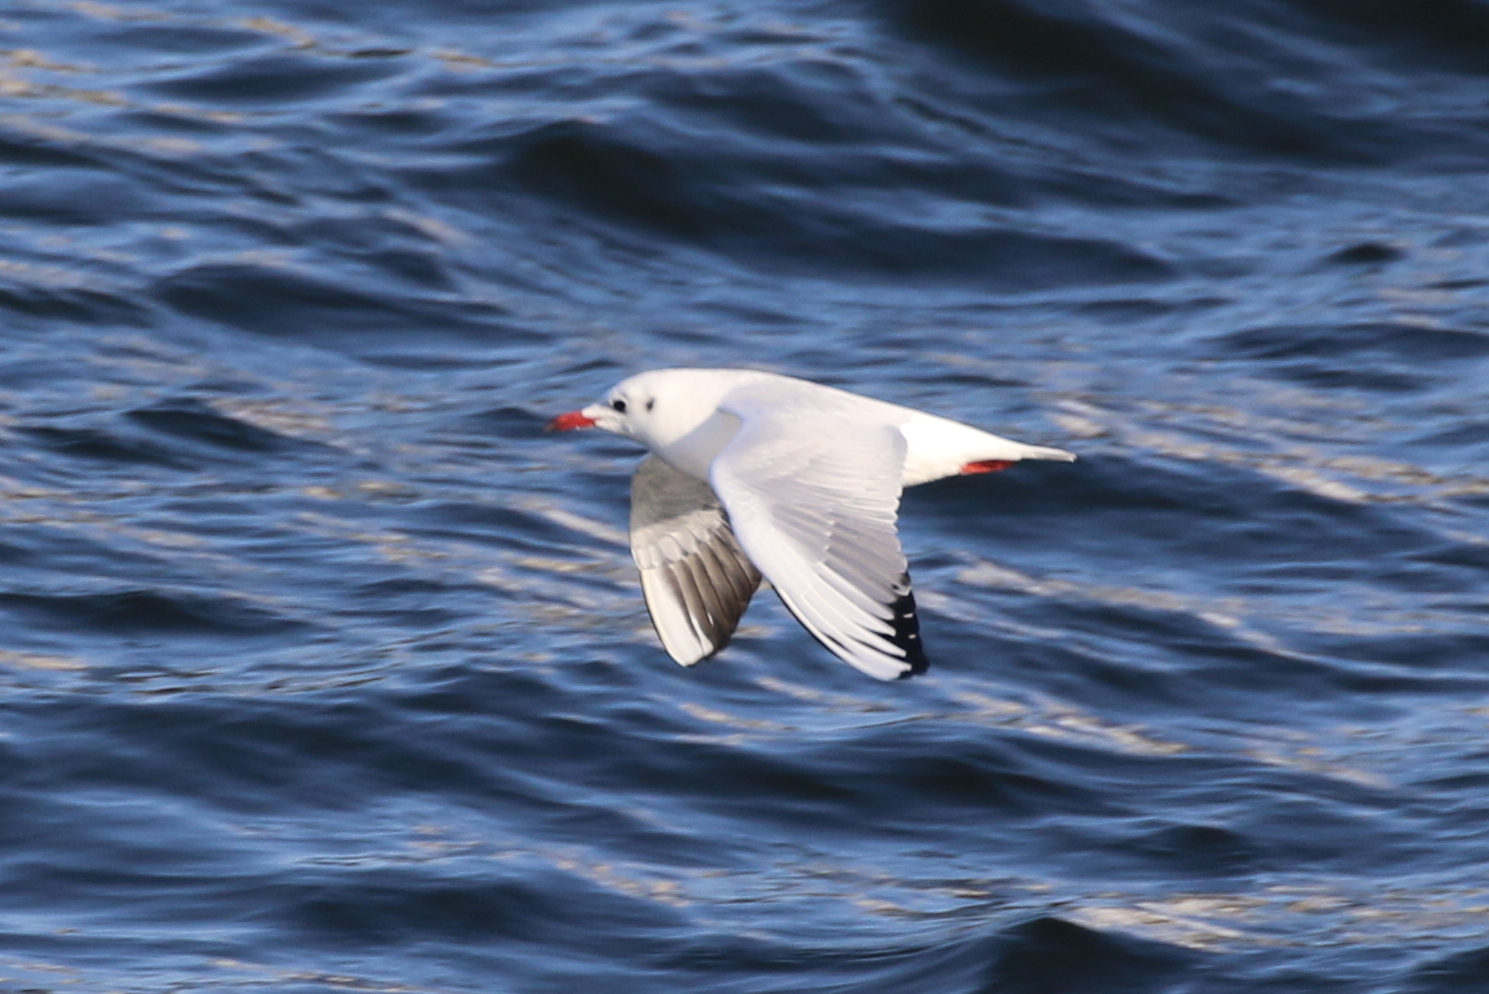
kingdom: Animalia
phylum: Chordata
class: Aves
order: Charadriiformes
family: Laridae
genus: Chroicocephalus
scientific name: Chroicocephalus ridibundus
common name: Black-headed gull
